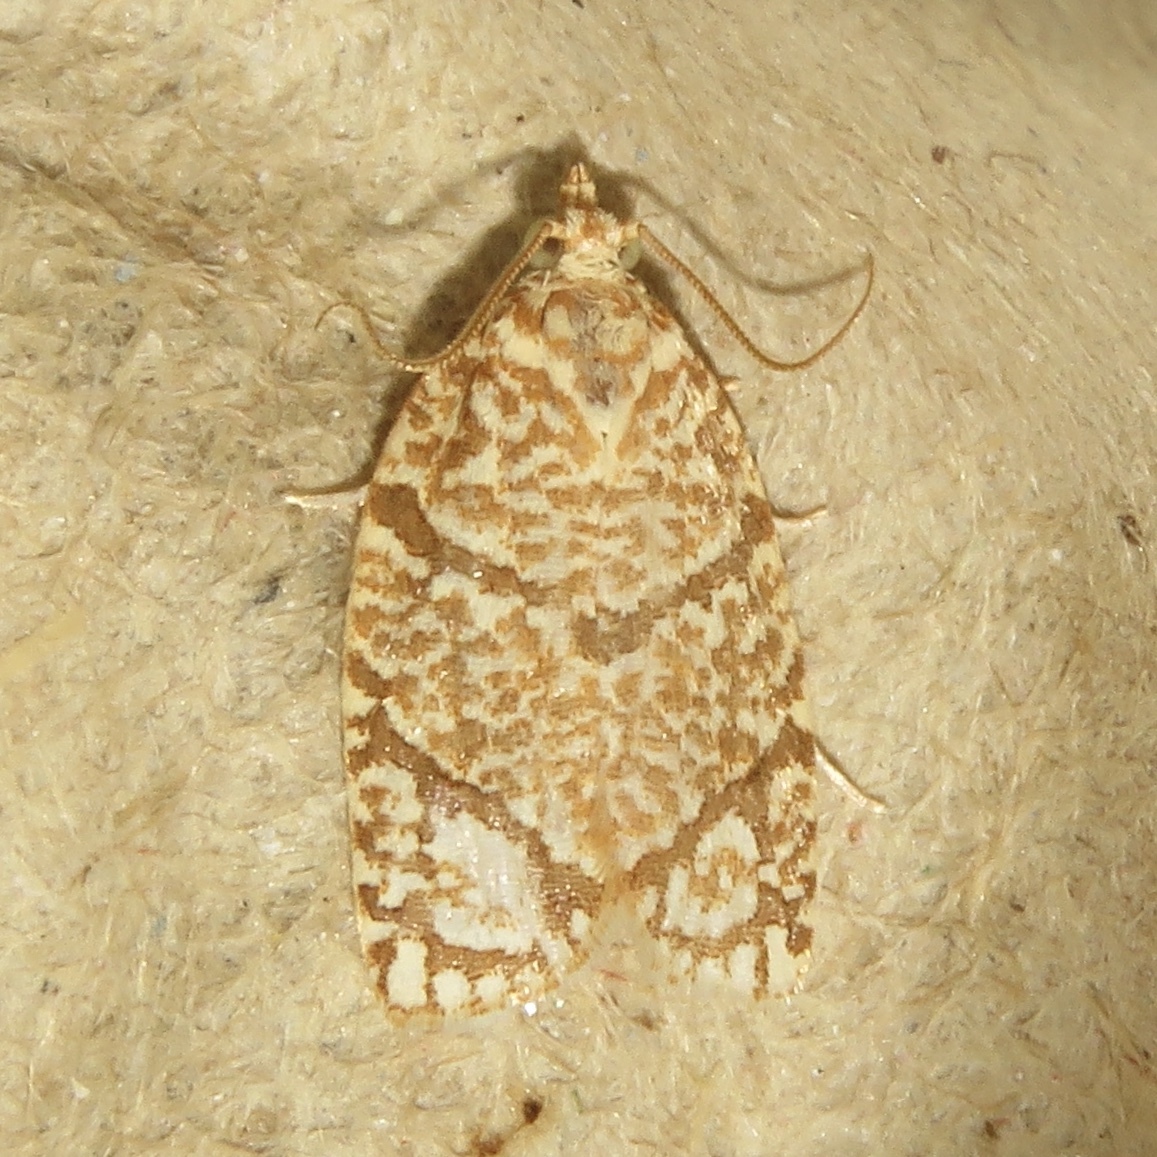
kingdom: Animalia
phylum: Arthropoda
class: Insecta
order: Lepidoptera
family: Tortricidae
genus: Argyrotaenia
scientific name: Argyrotaenia quercifoliana
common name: Yellow-winged oak leafroller moth
